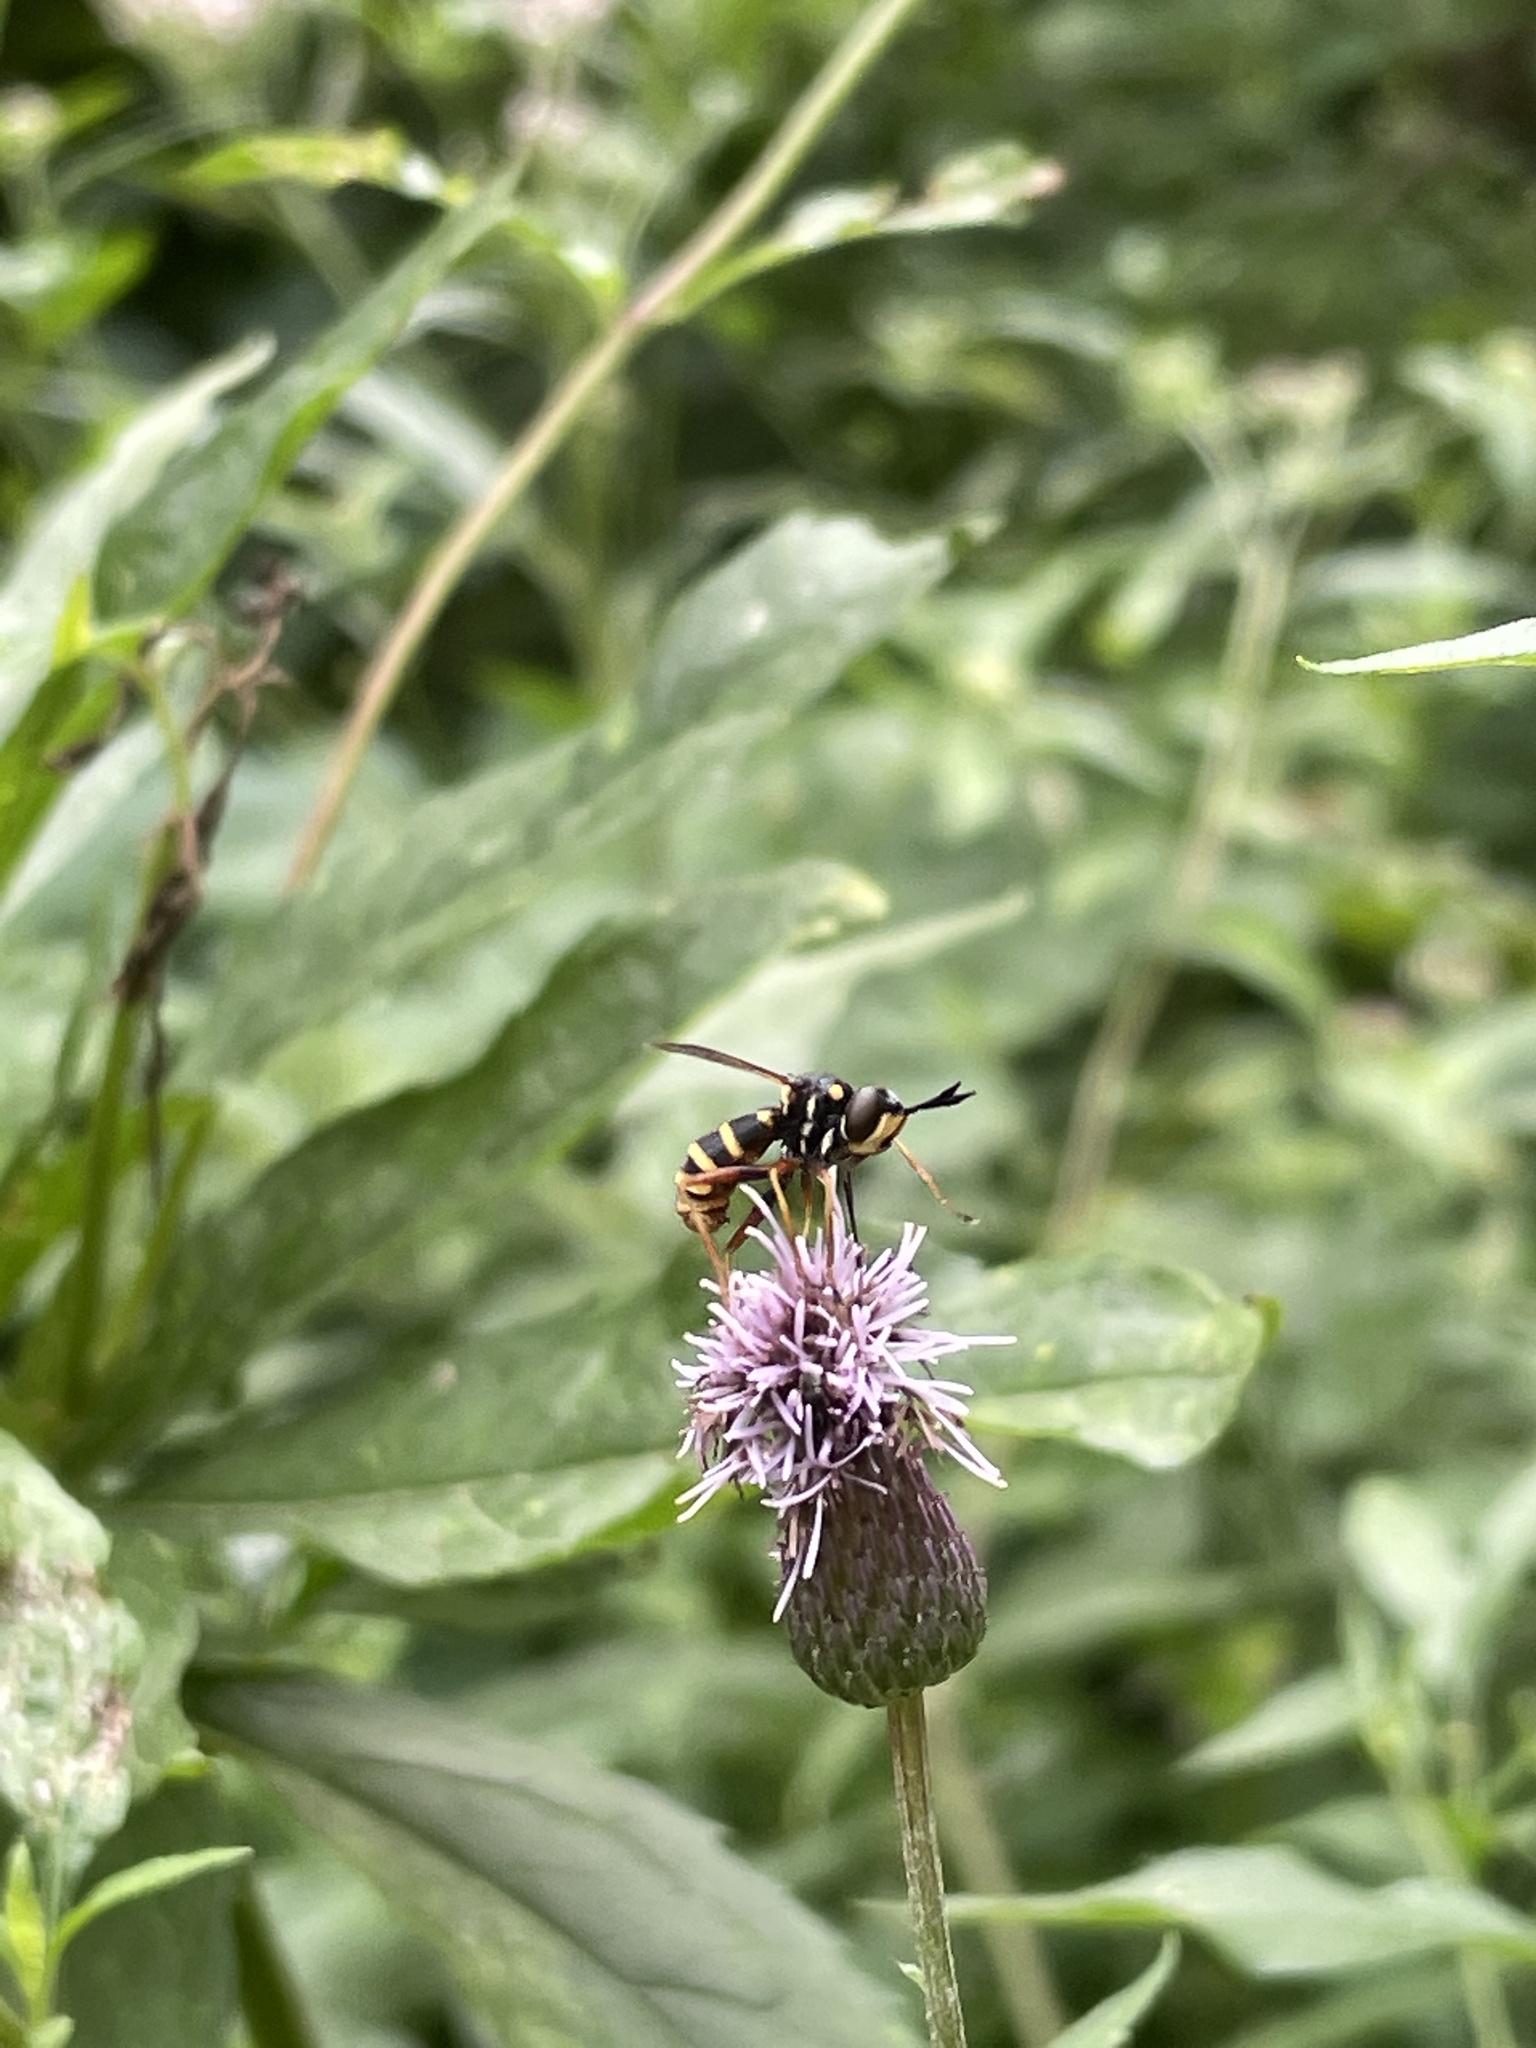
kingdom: Animalia
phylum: Arthropoda
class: Insecta
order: Diptera
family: Conopidae
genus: Conops
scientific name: Conops quadrifasciatus
